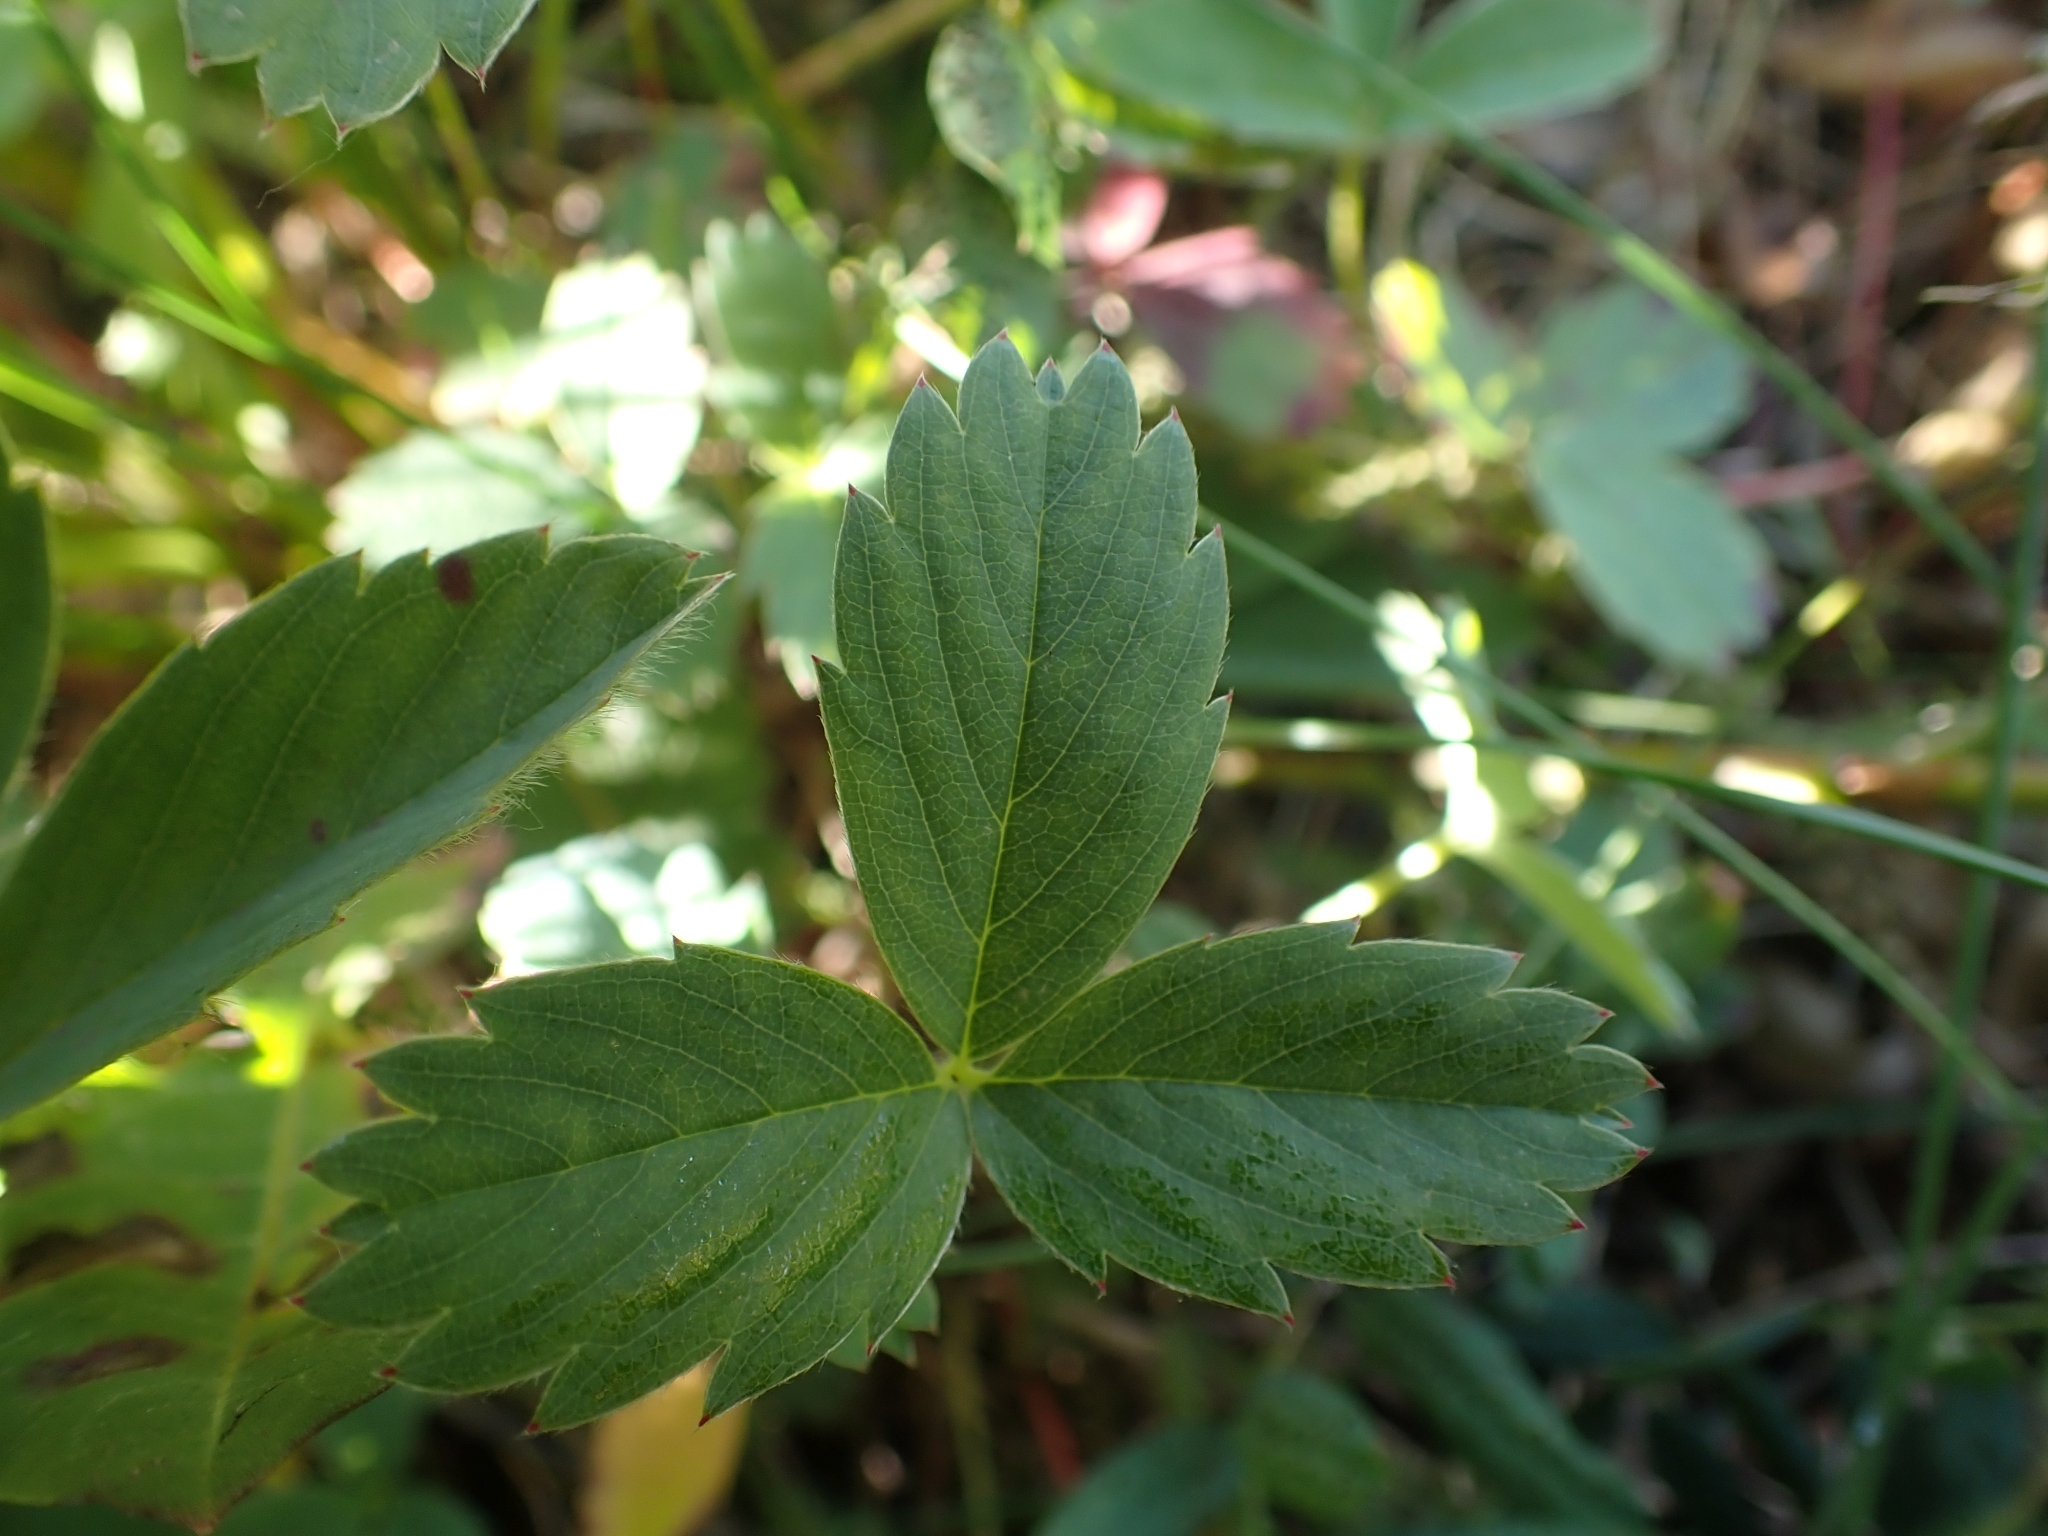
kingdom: Plantae
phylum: Tracheophyta
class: Magnoliopsida
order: Rosales
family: Rosaceae
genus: Fragaria
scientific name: Fragaria virginiana
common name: Thickleaved wild strawberry
